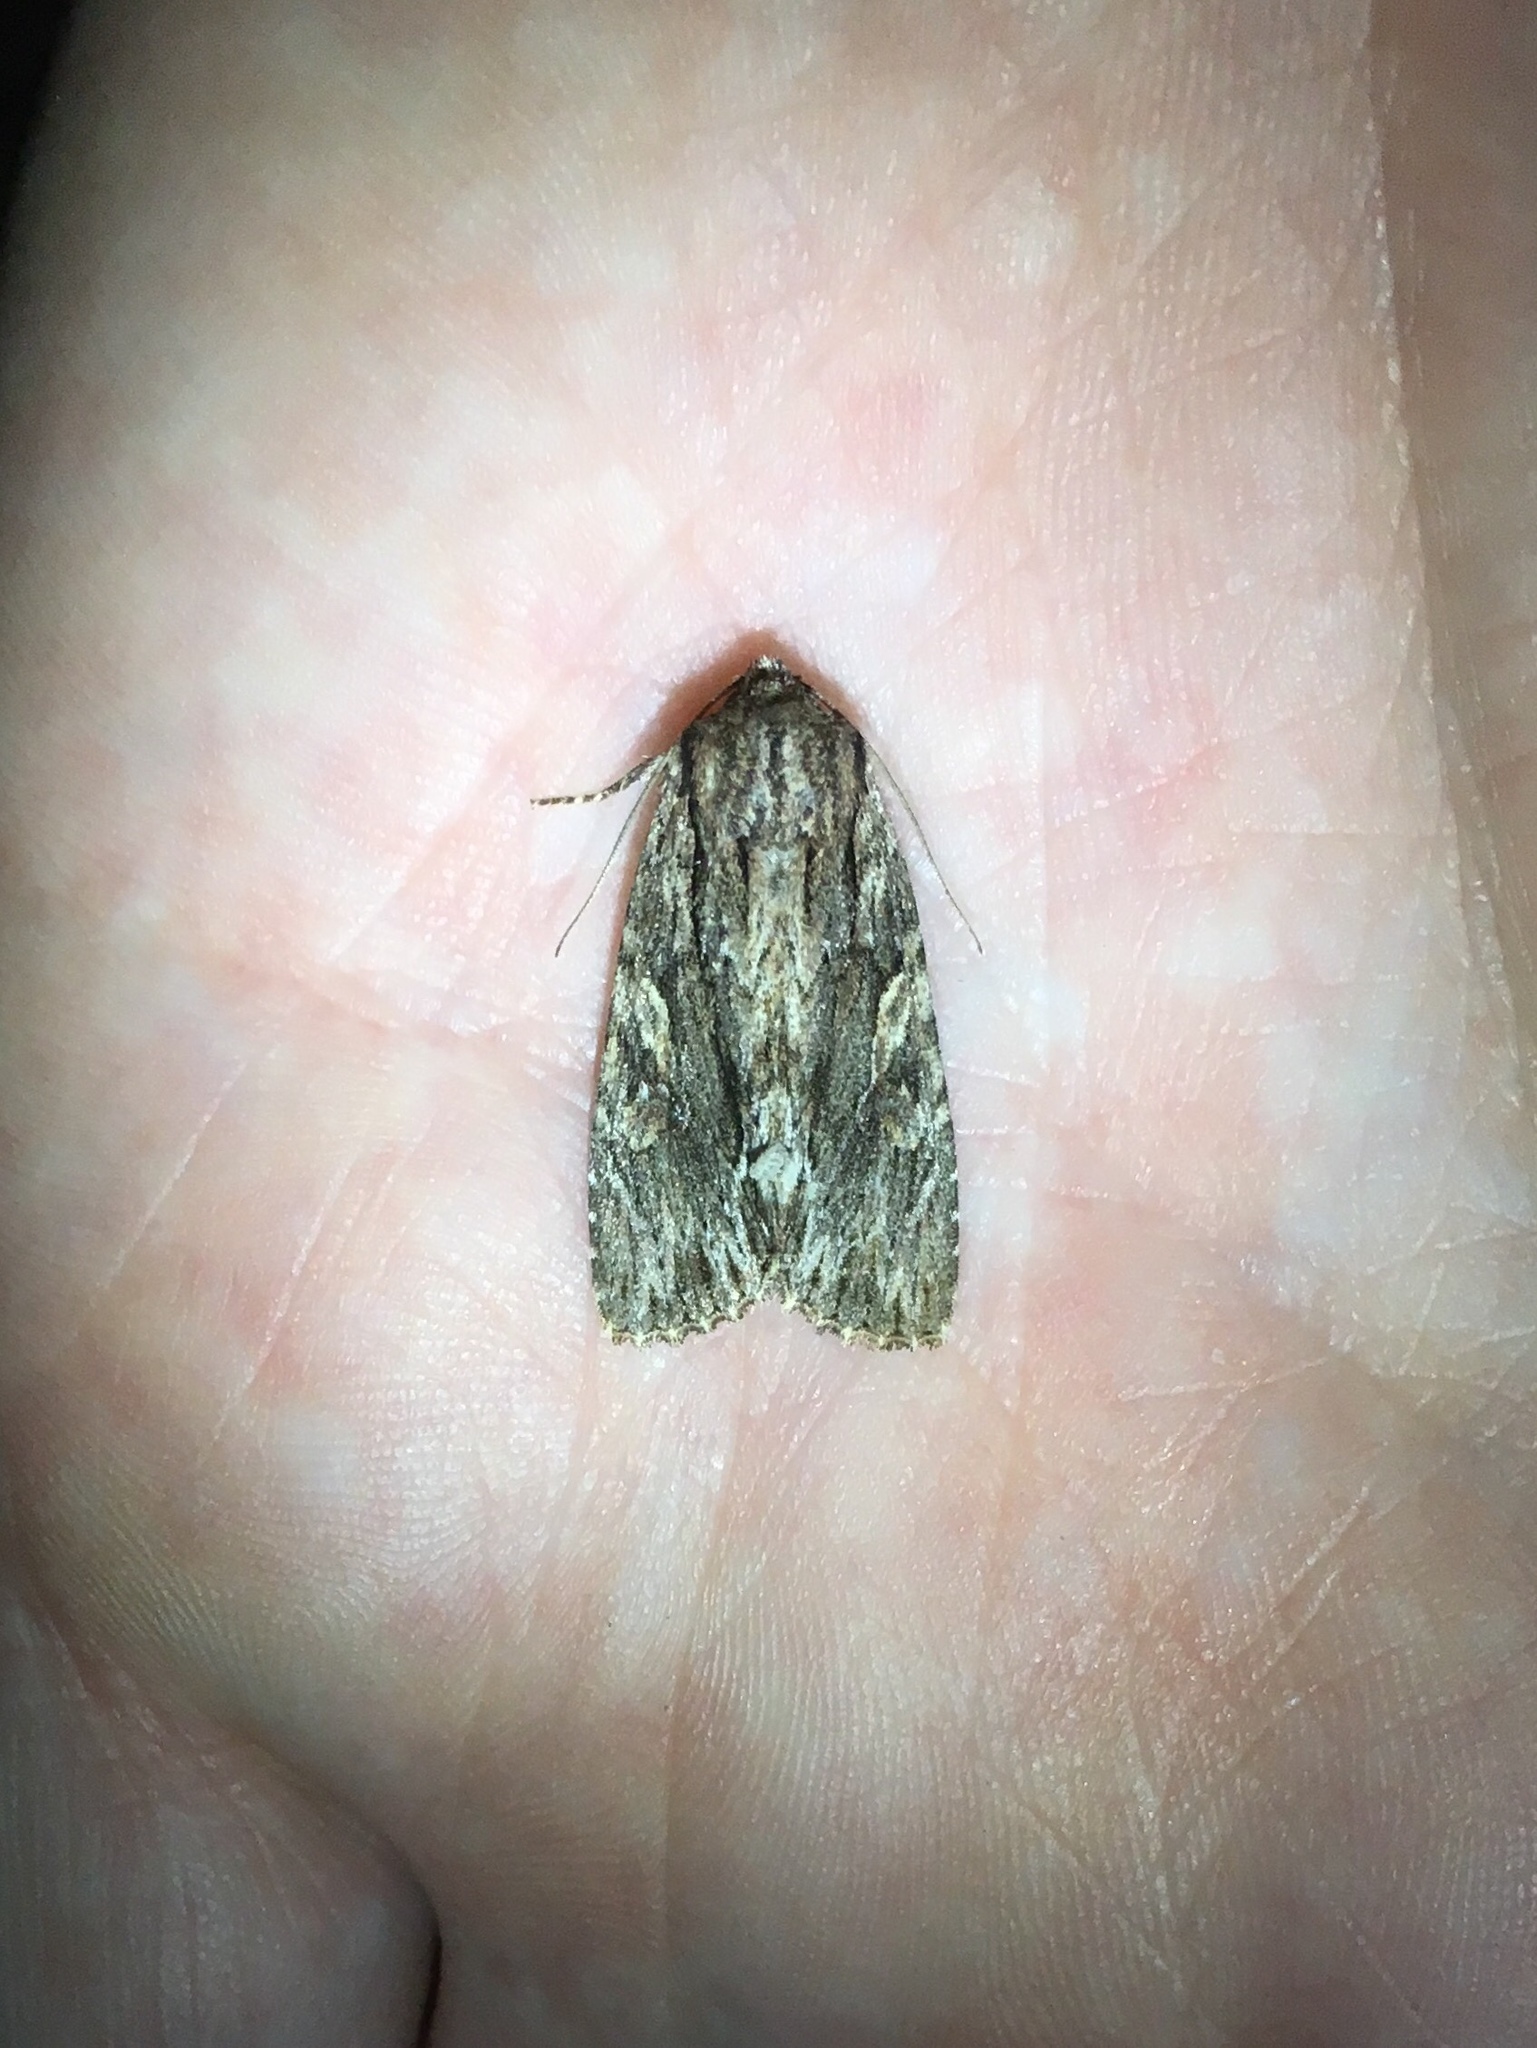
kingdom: Animalia
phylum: Arthropoda
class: Insecta
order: Lepidoptera
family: Noctuidae
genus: Achatia
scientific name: Achatia confusa
